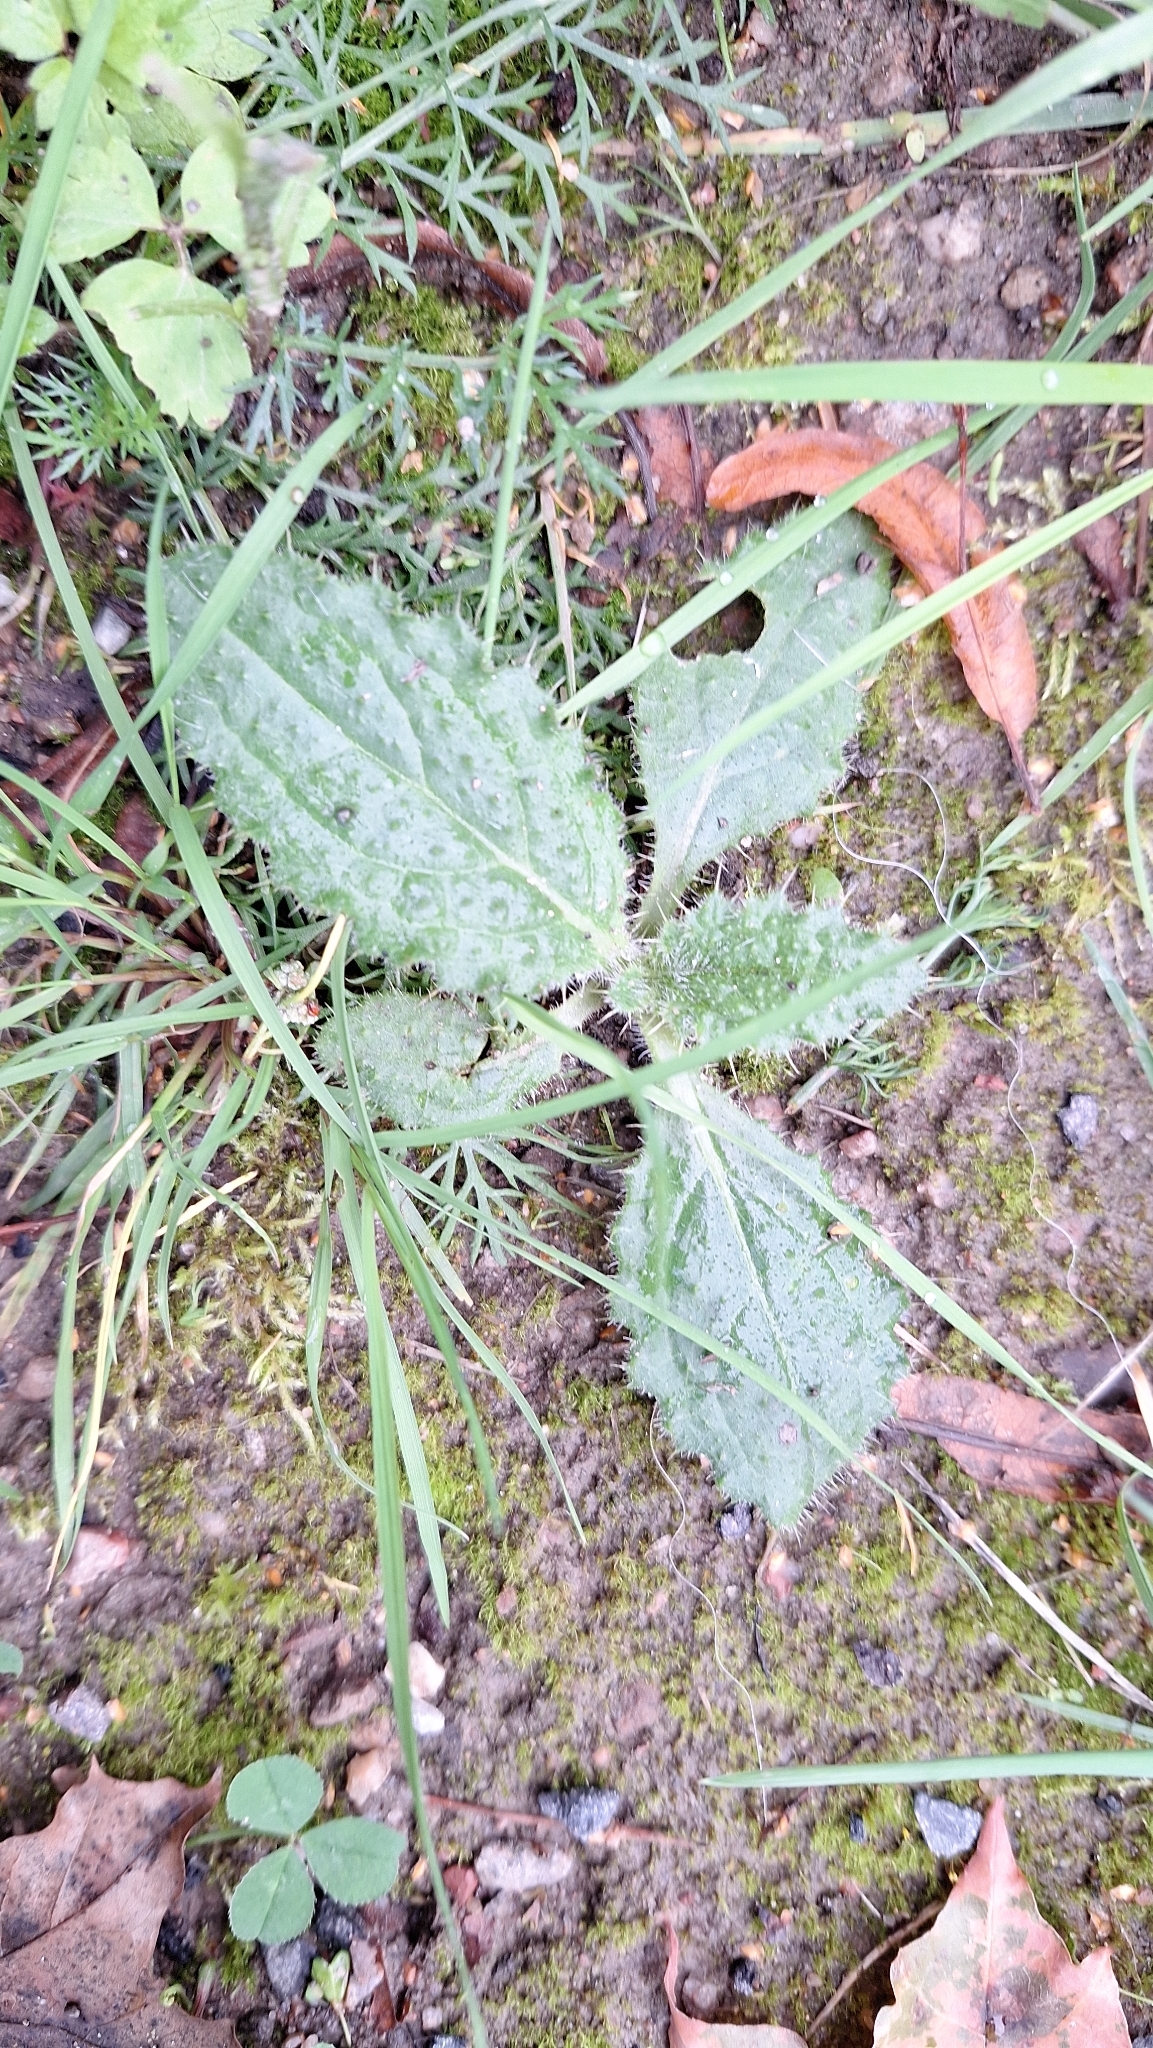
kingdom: Plantae
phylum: Tracheophyta
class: Magnoliopsida
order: Asterales
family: Asteraceae
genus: Cirsium
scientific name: Cirsium vulgare
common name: Bull thistle
